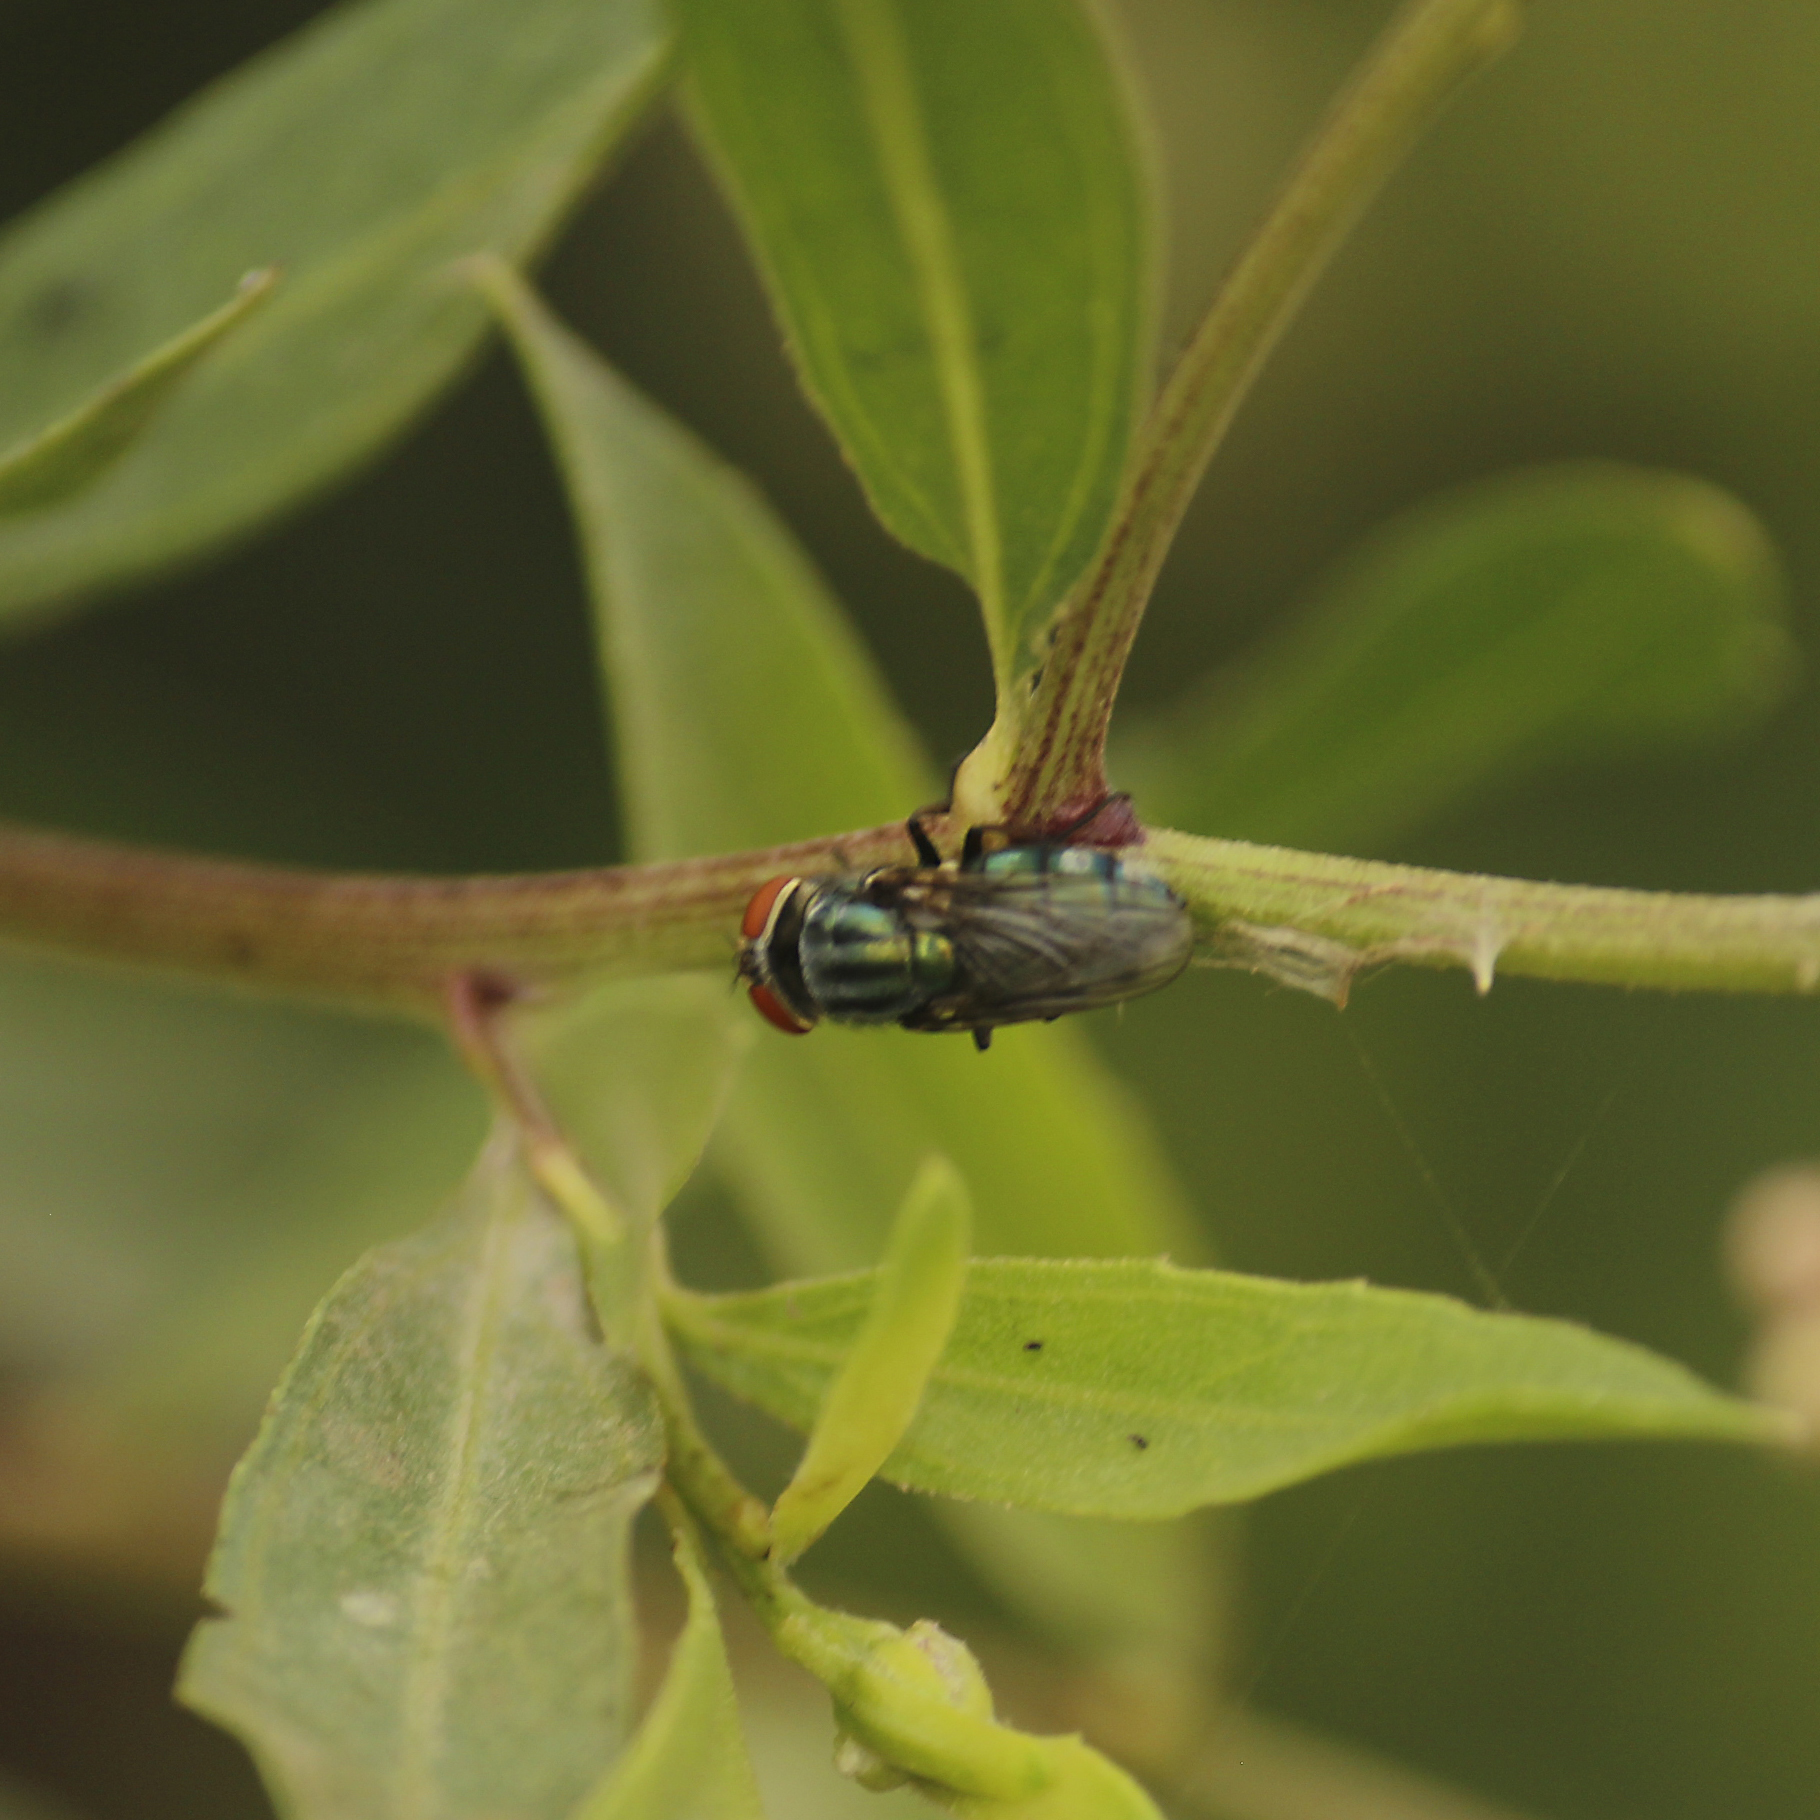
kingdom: Animalia
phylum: Arthropoda
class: Insecta
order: Diptera
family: Calliphoridae
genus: Cochliomyia
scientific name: Cochliomyia macellaria
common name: Secondary screwworm
